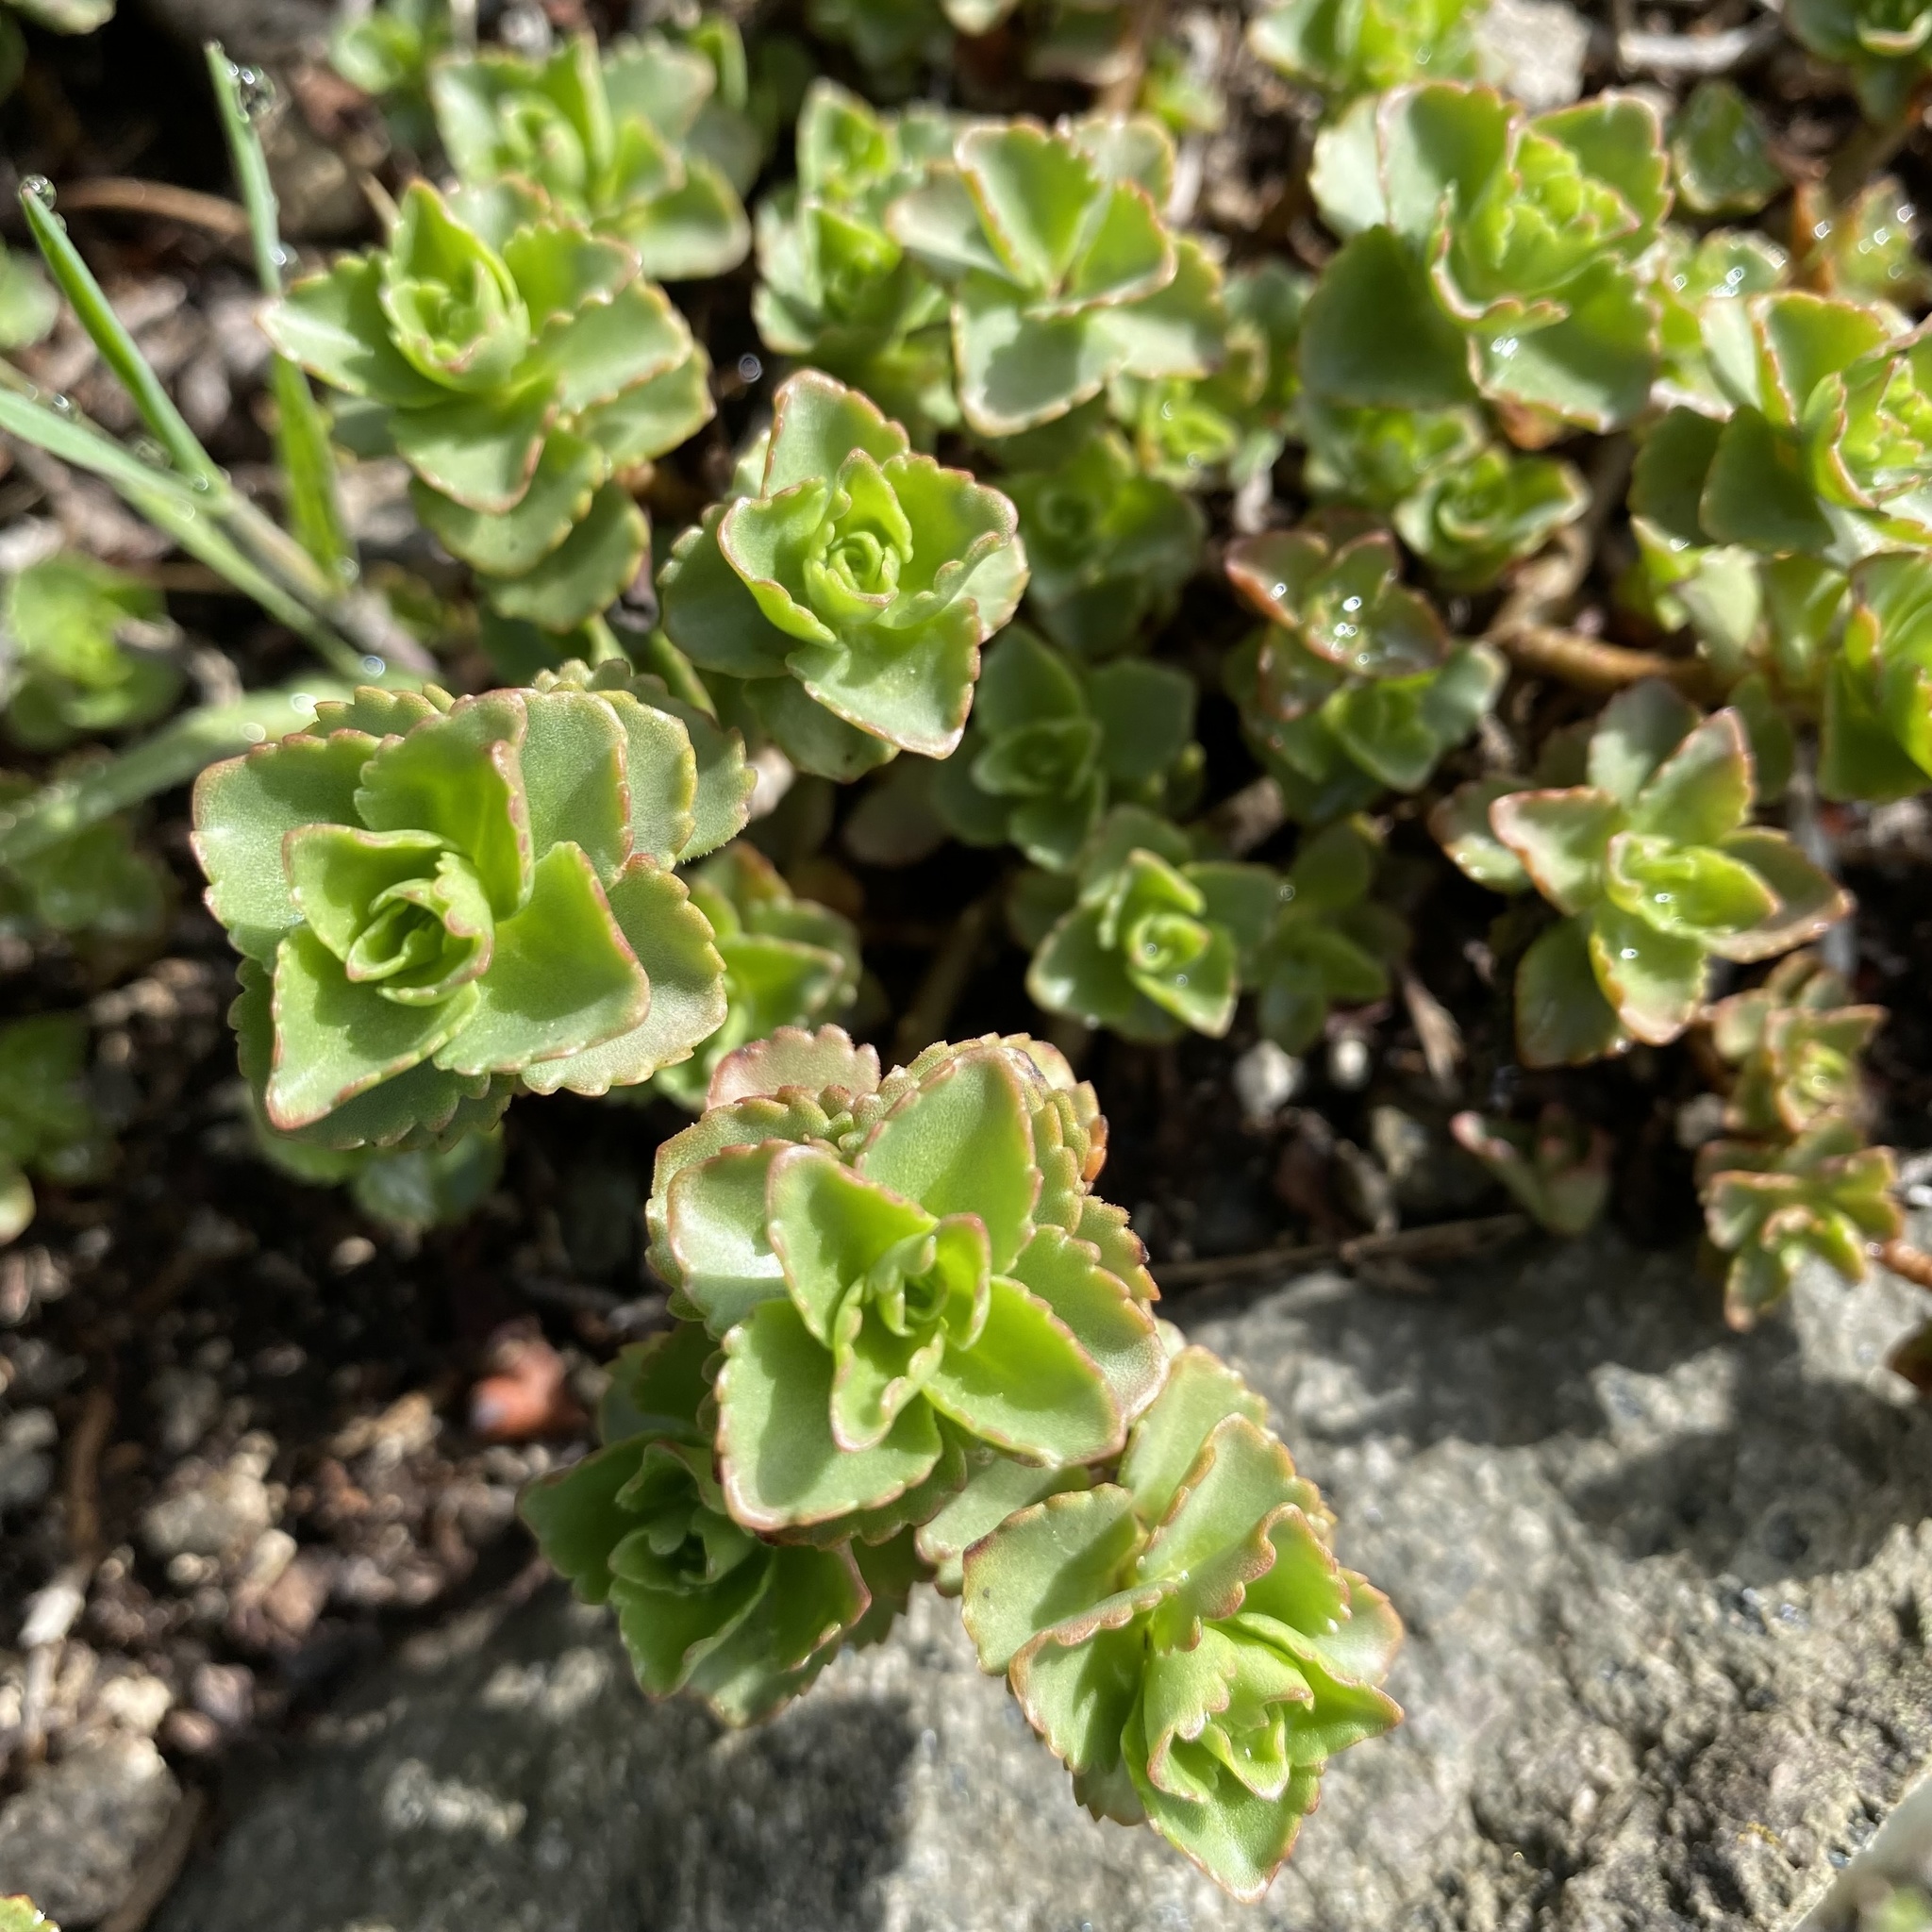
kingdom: Plantae
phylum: Tracheophyta
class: Magnoliopsida
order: Saxifragales
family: Crassulaceae
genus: Phedimus
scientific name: Phedimus spurius
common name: Caucasian stonecrop
